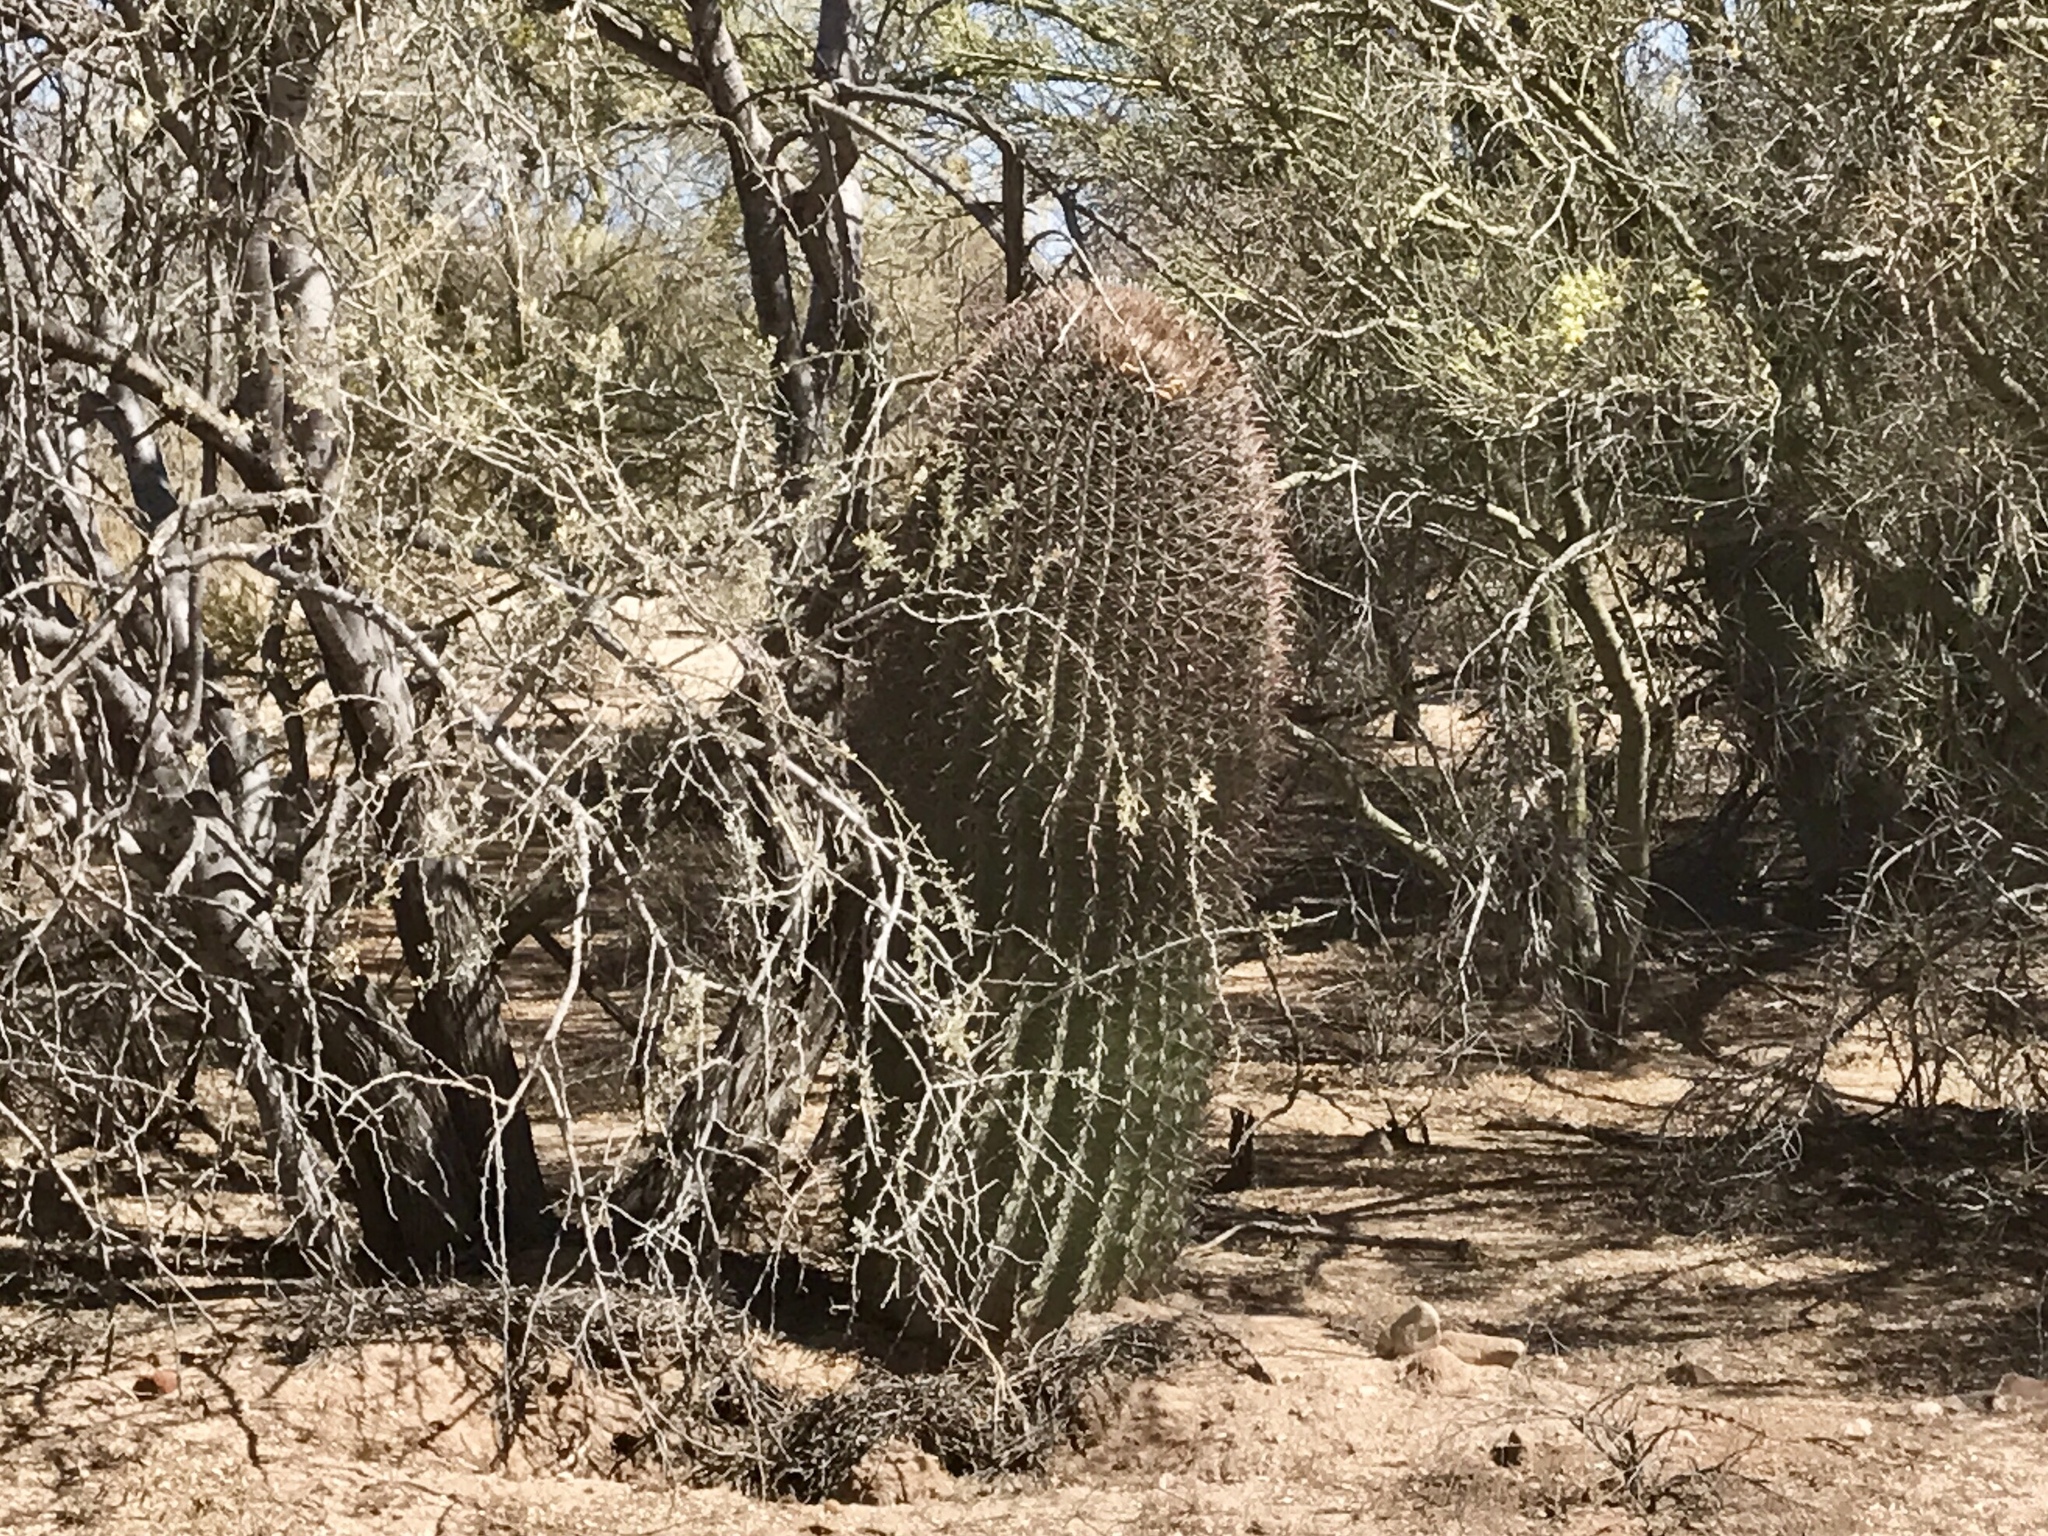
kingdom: Plantae
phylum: Tracheophyta
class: Magnoliopsida
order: Caryophyllales
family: Cactaceae
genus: Ferocactus
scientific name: Ferocactus wislizeni
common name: Candy barrel cactus
